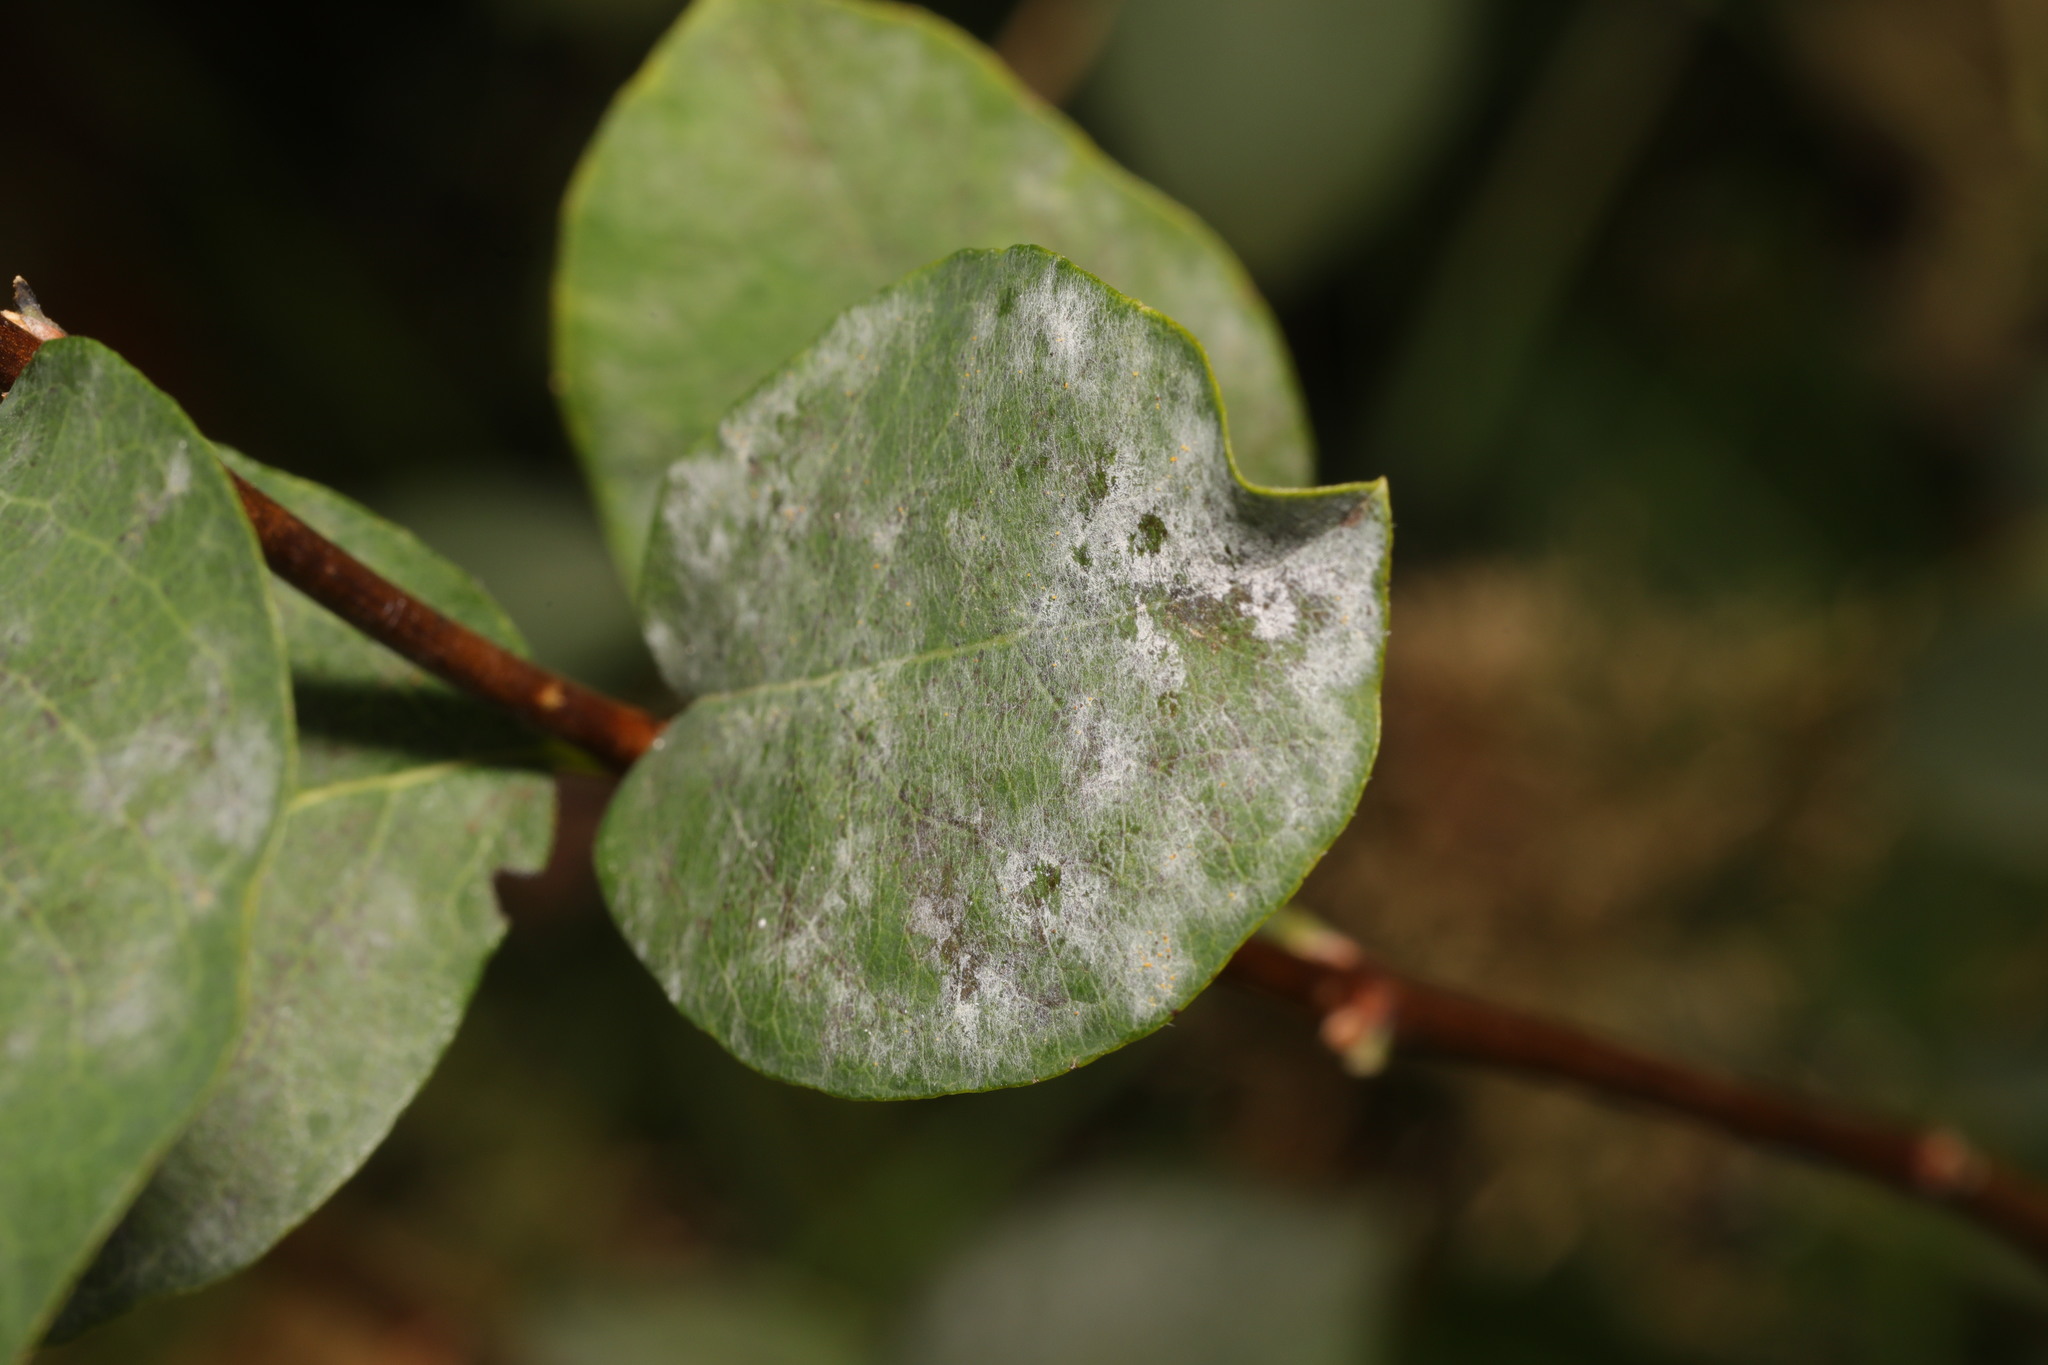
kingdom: Fungi
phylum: Ascomycota
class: Leotiomycetes
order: Helotiales
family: Erysiphaceae
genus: Erysiphe
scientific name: Erysiphe symphoricarpi
